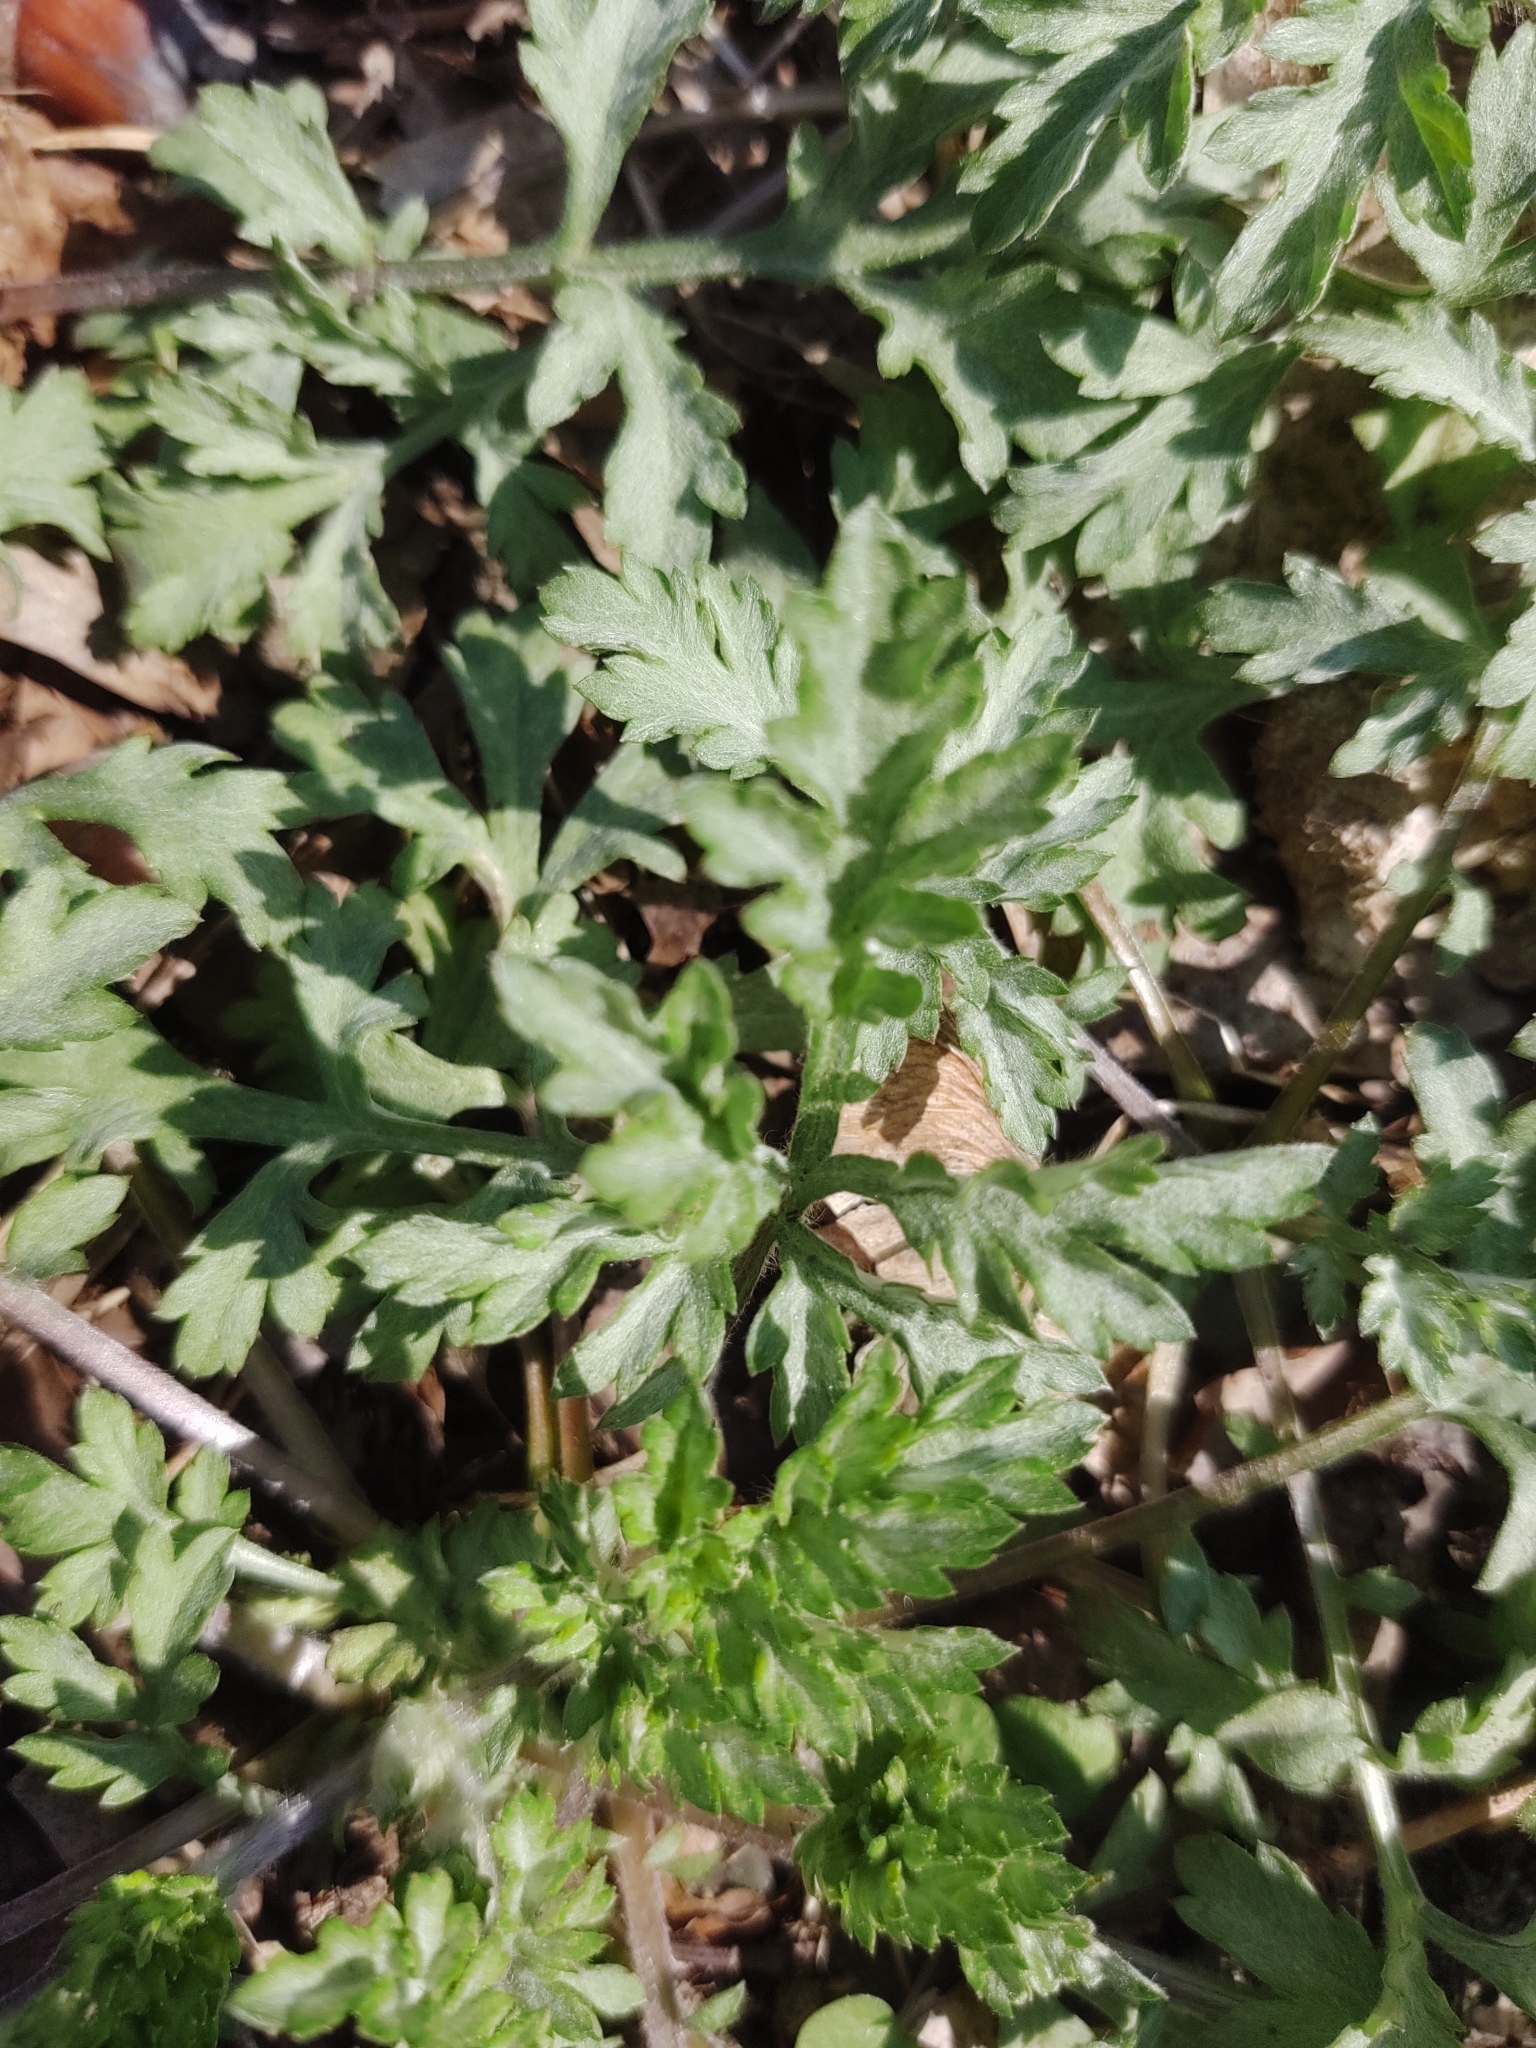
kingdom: Plantae
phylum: Tracheophyta
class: Magnoliopsida
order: Asterales
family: Asteraceae
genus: Artemisia
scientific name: Artemisia vulgaris
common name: Mugwort
